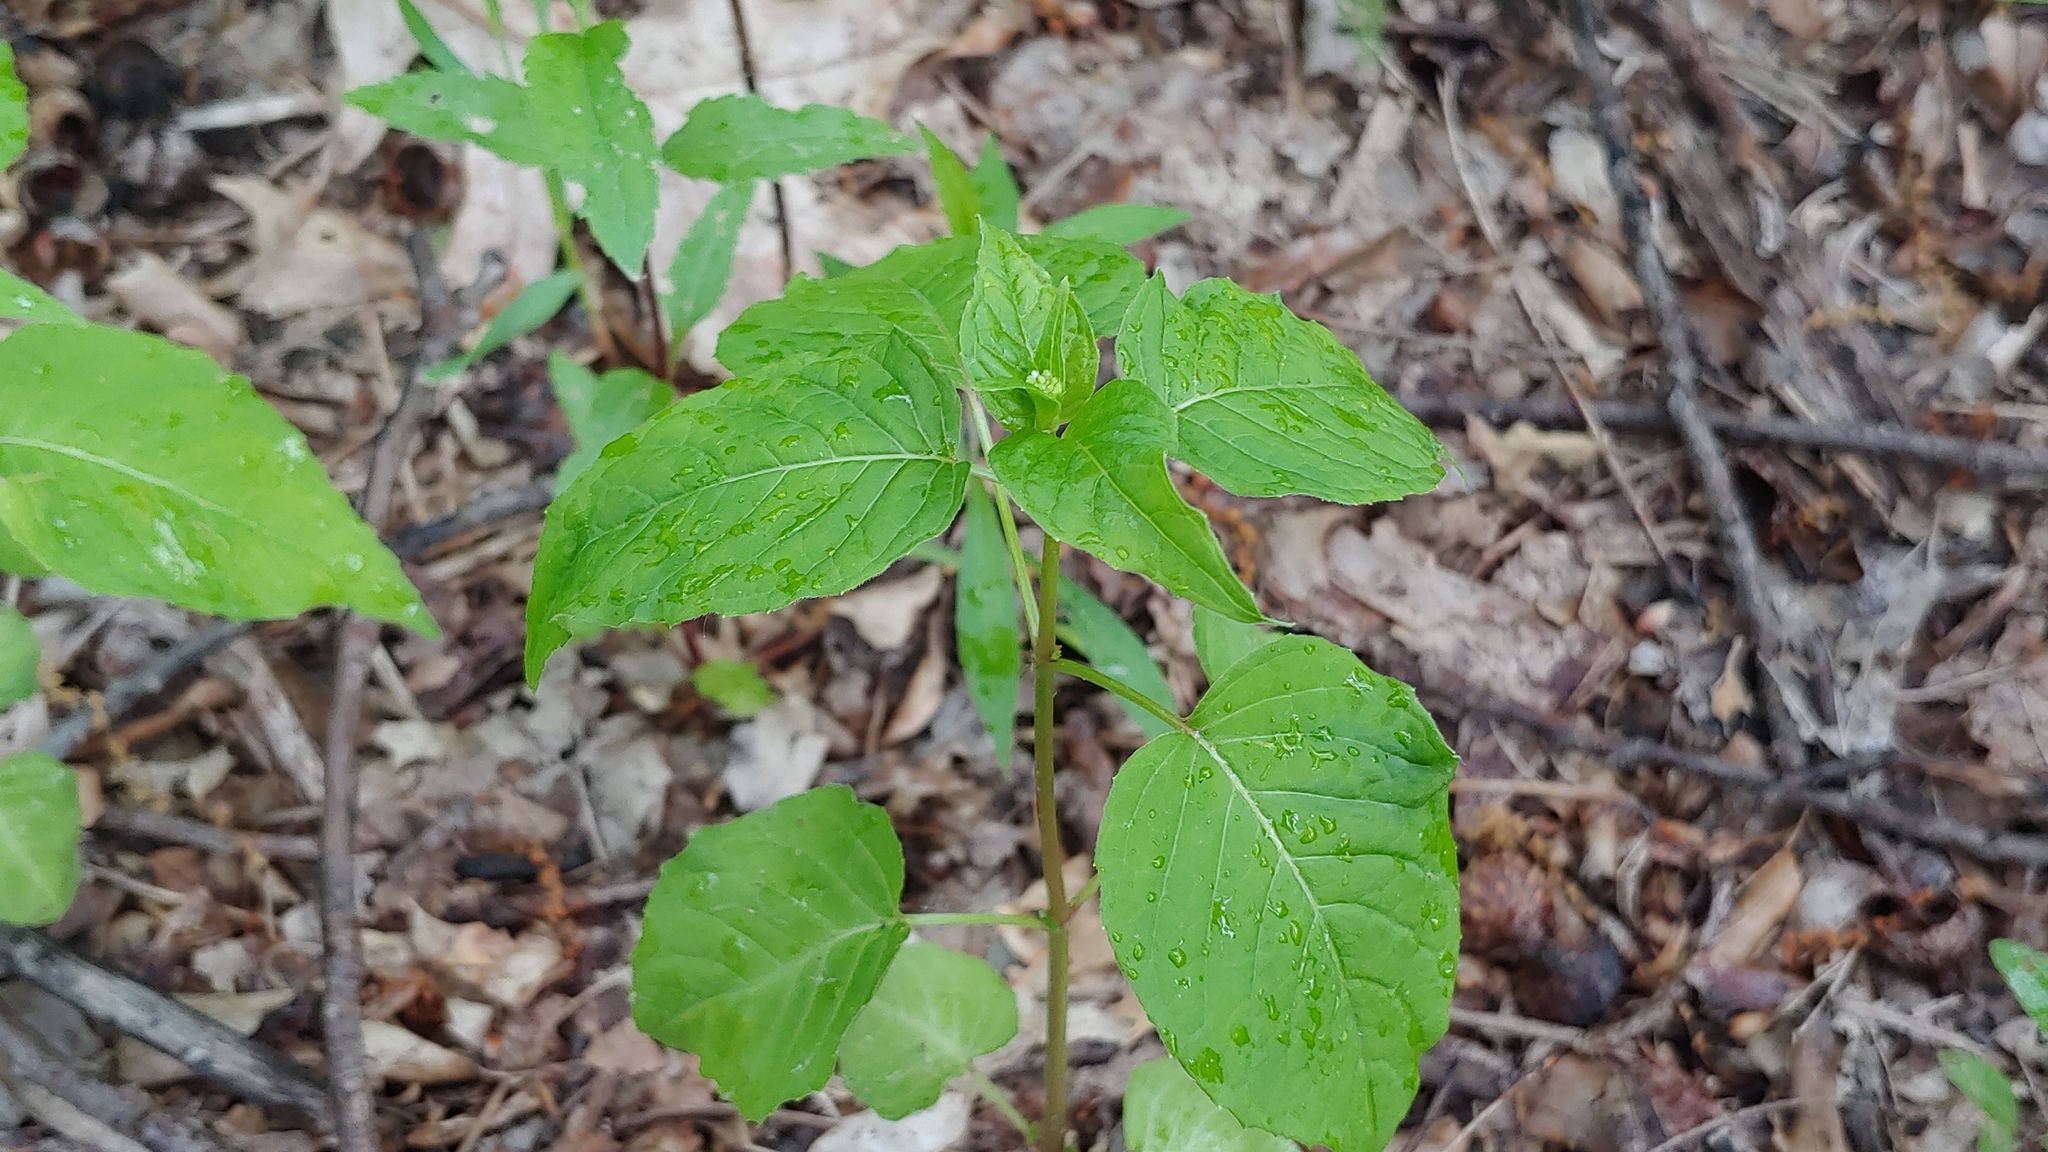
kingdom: Plantae
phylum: Tracheophyta
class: Magnoliopsida
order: Myrtales
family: Onagraceae
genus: Circaea
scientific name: Circaea canadensis
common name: Broad-leaved enchanter's nightshade
